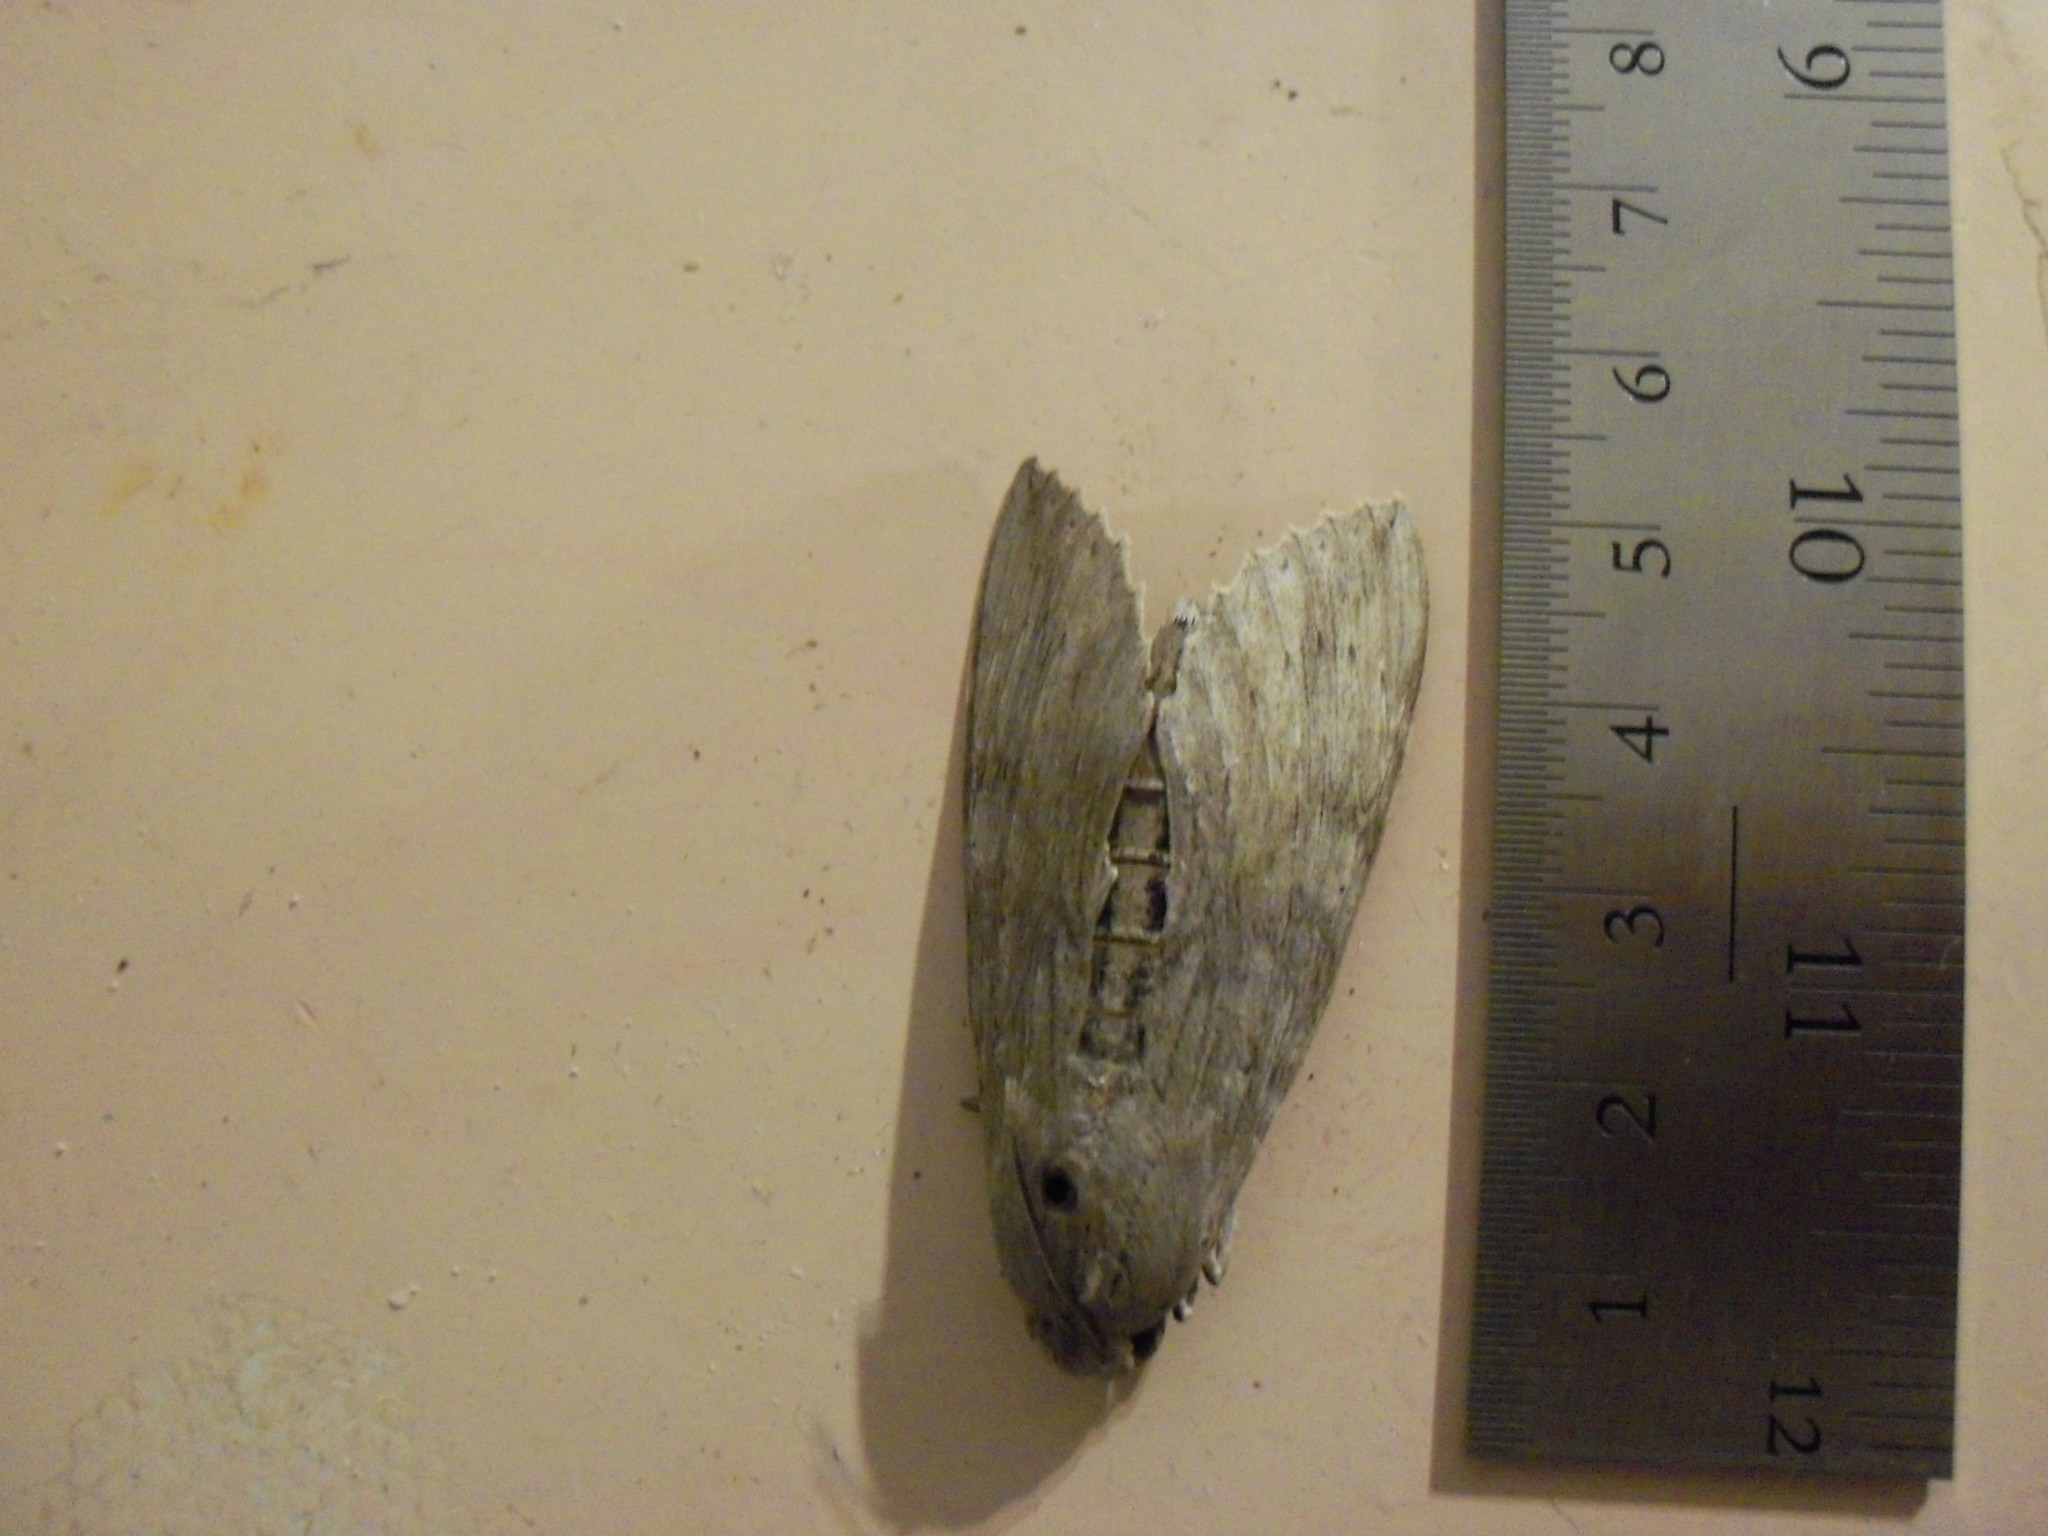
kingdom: Animalia
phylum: Arthropoda
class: Insecta
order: Lepidoptera
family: Sphingidae
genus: Erinnyis
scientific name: Erinnyis ello
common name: Ello sphinx
